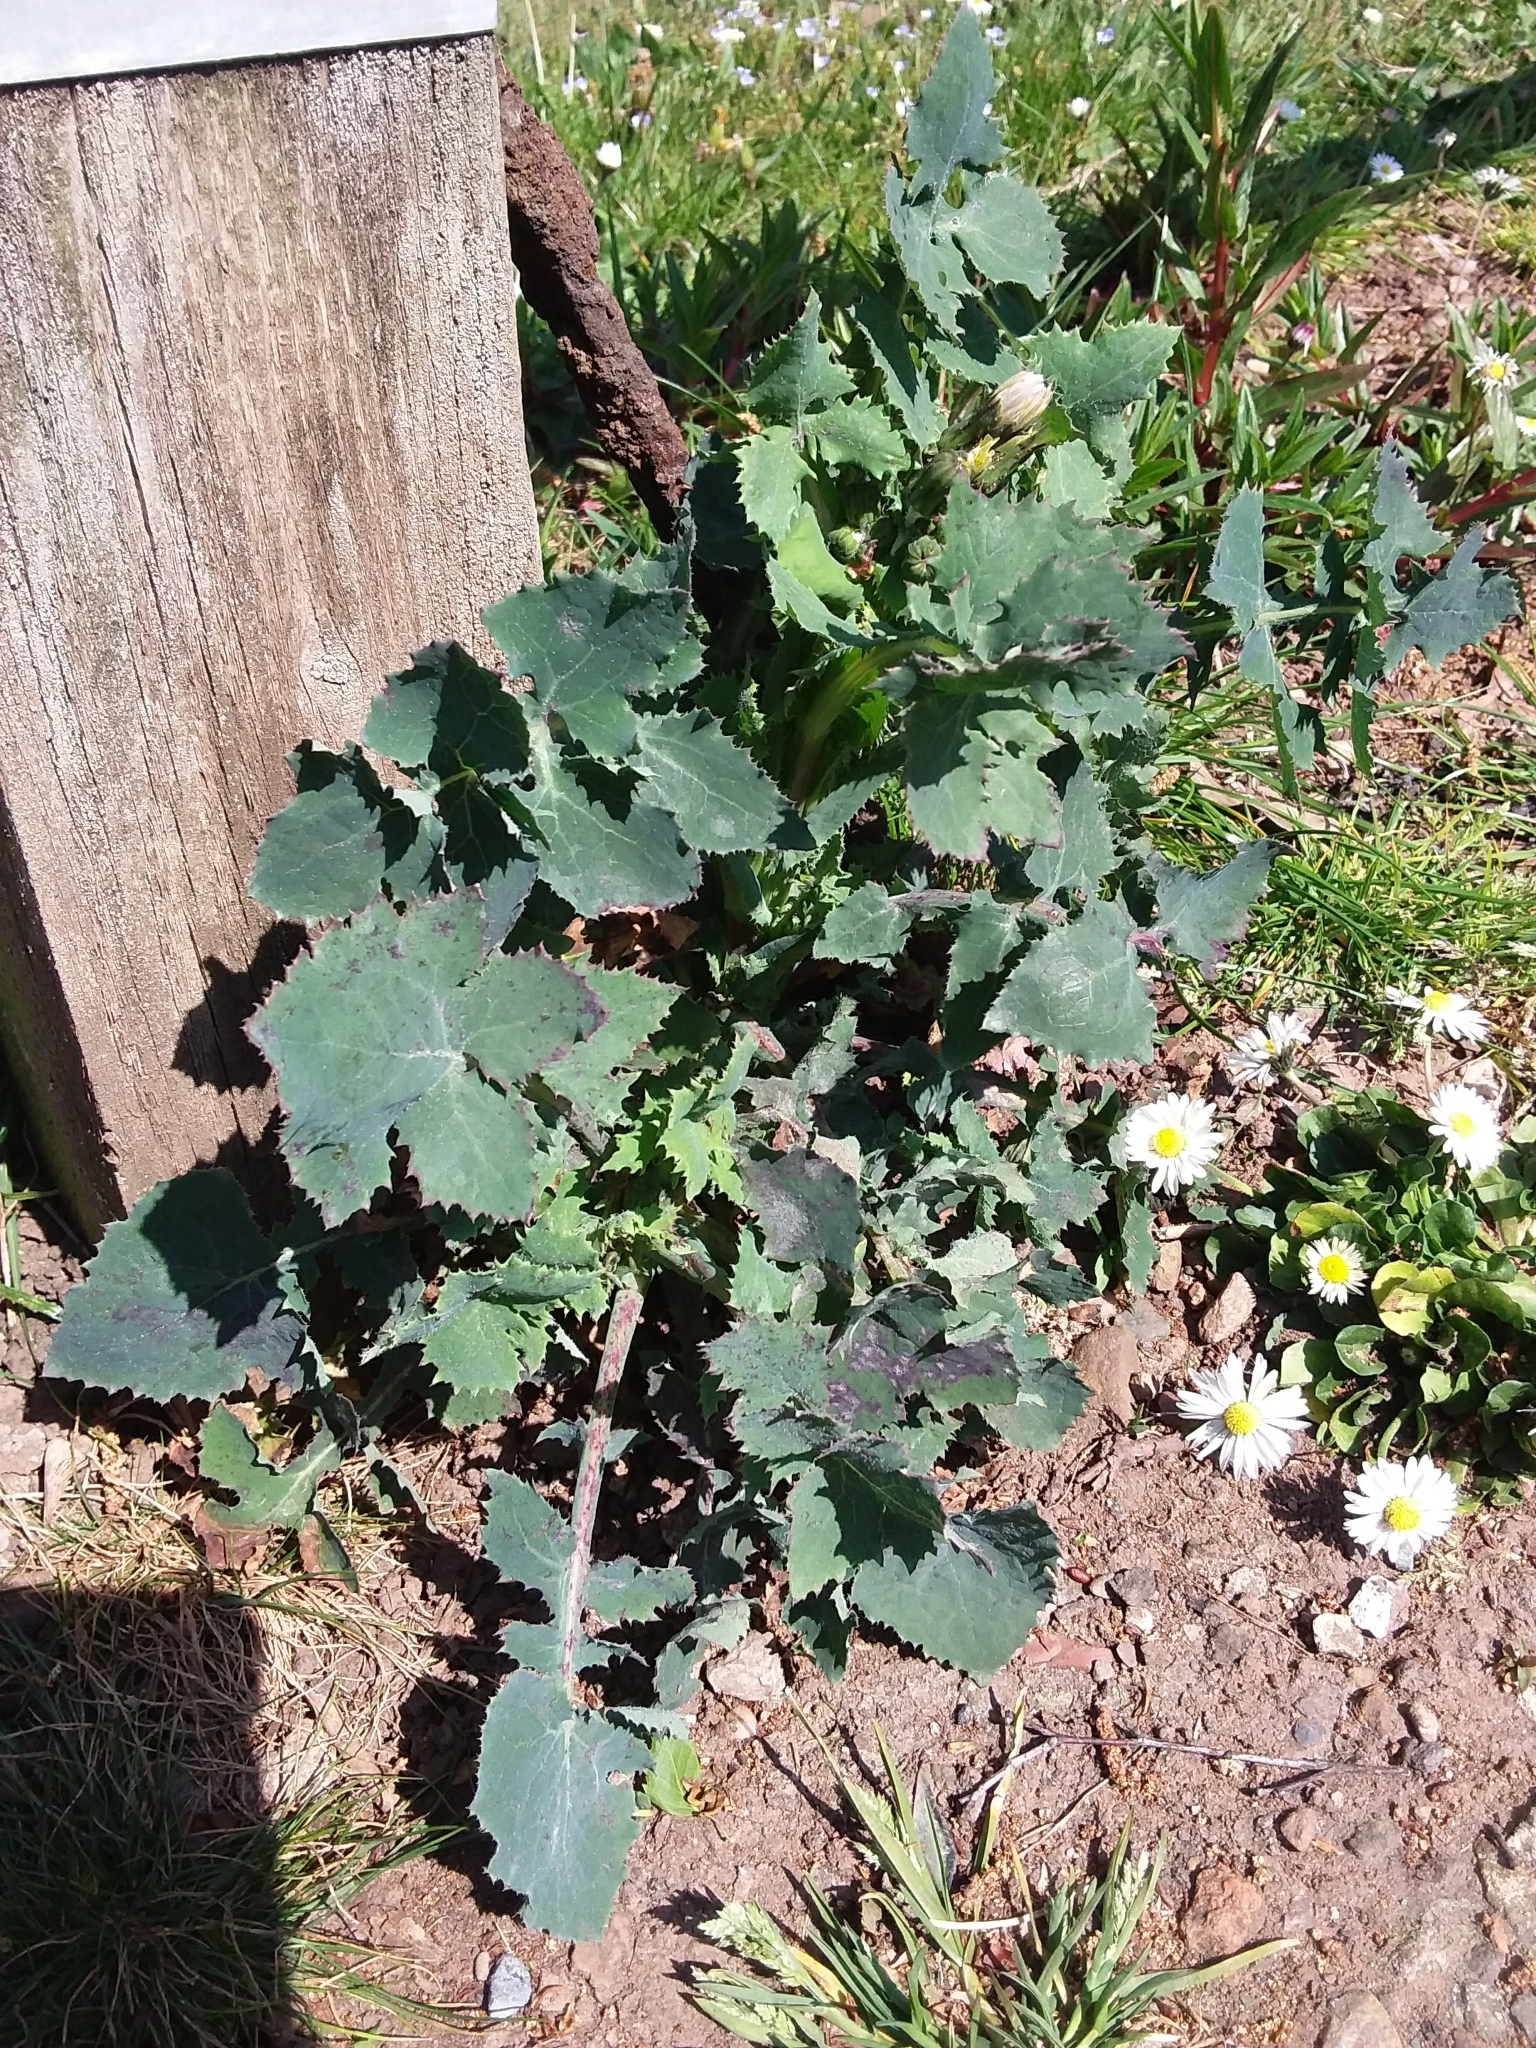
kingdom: Plantae
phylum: Tracheophyta
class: Magnoliopsida
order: Asterales
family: Asteraceae
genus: Sonchus
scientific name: Sonchus oleraceus
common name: Common sowthistle
